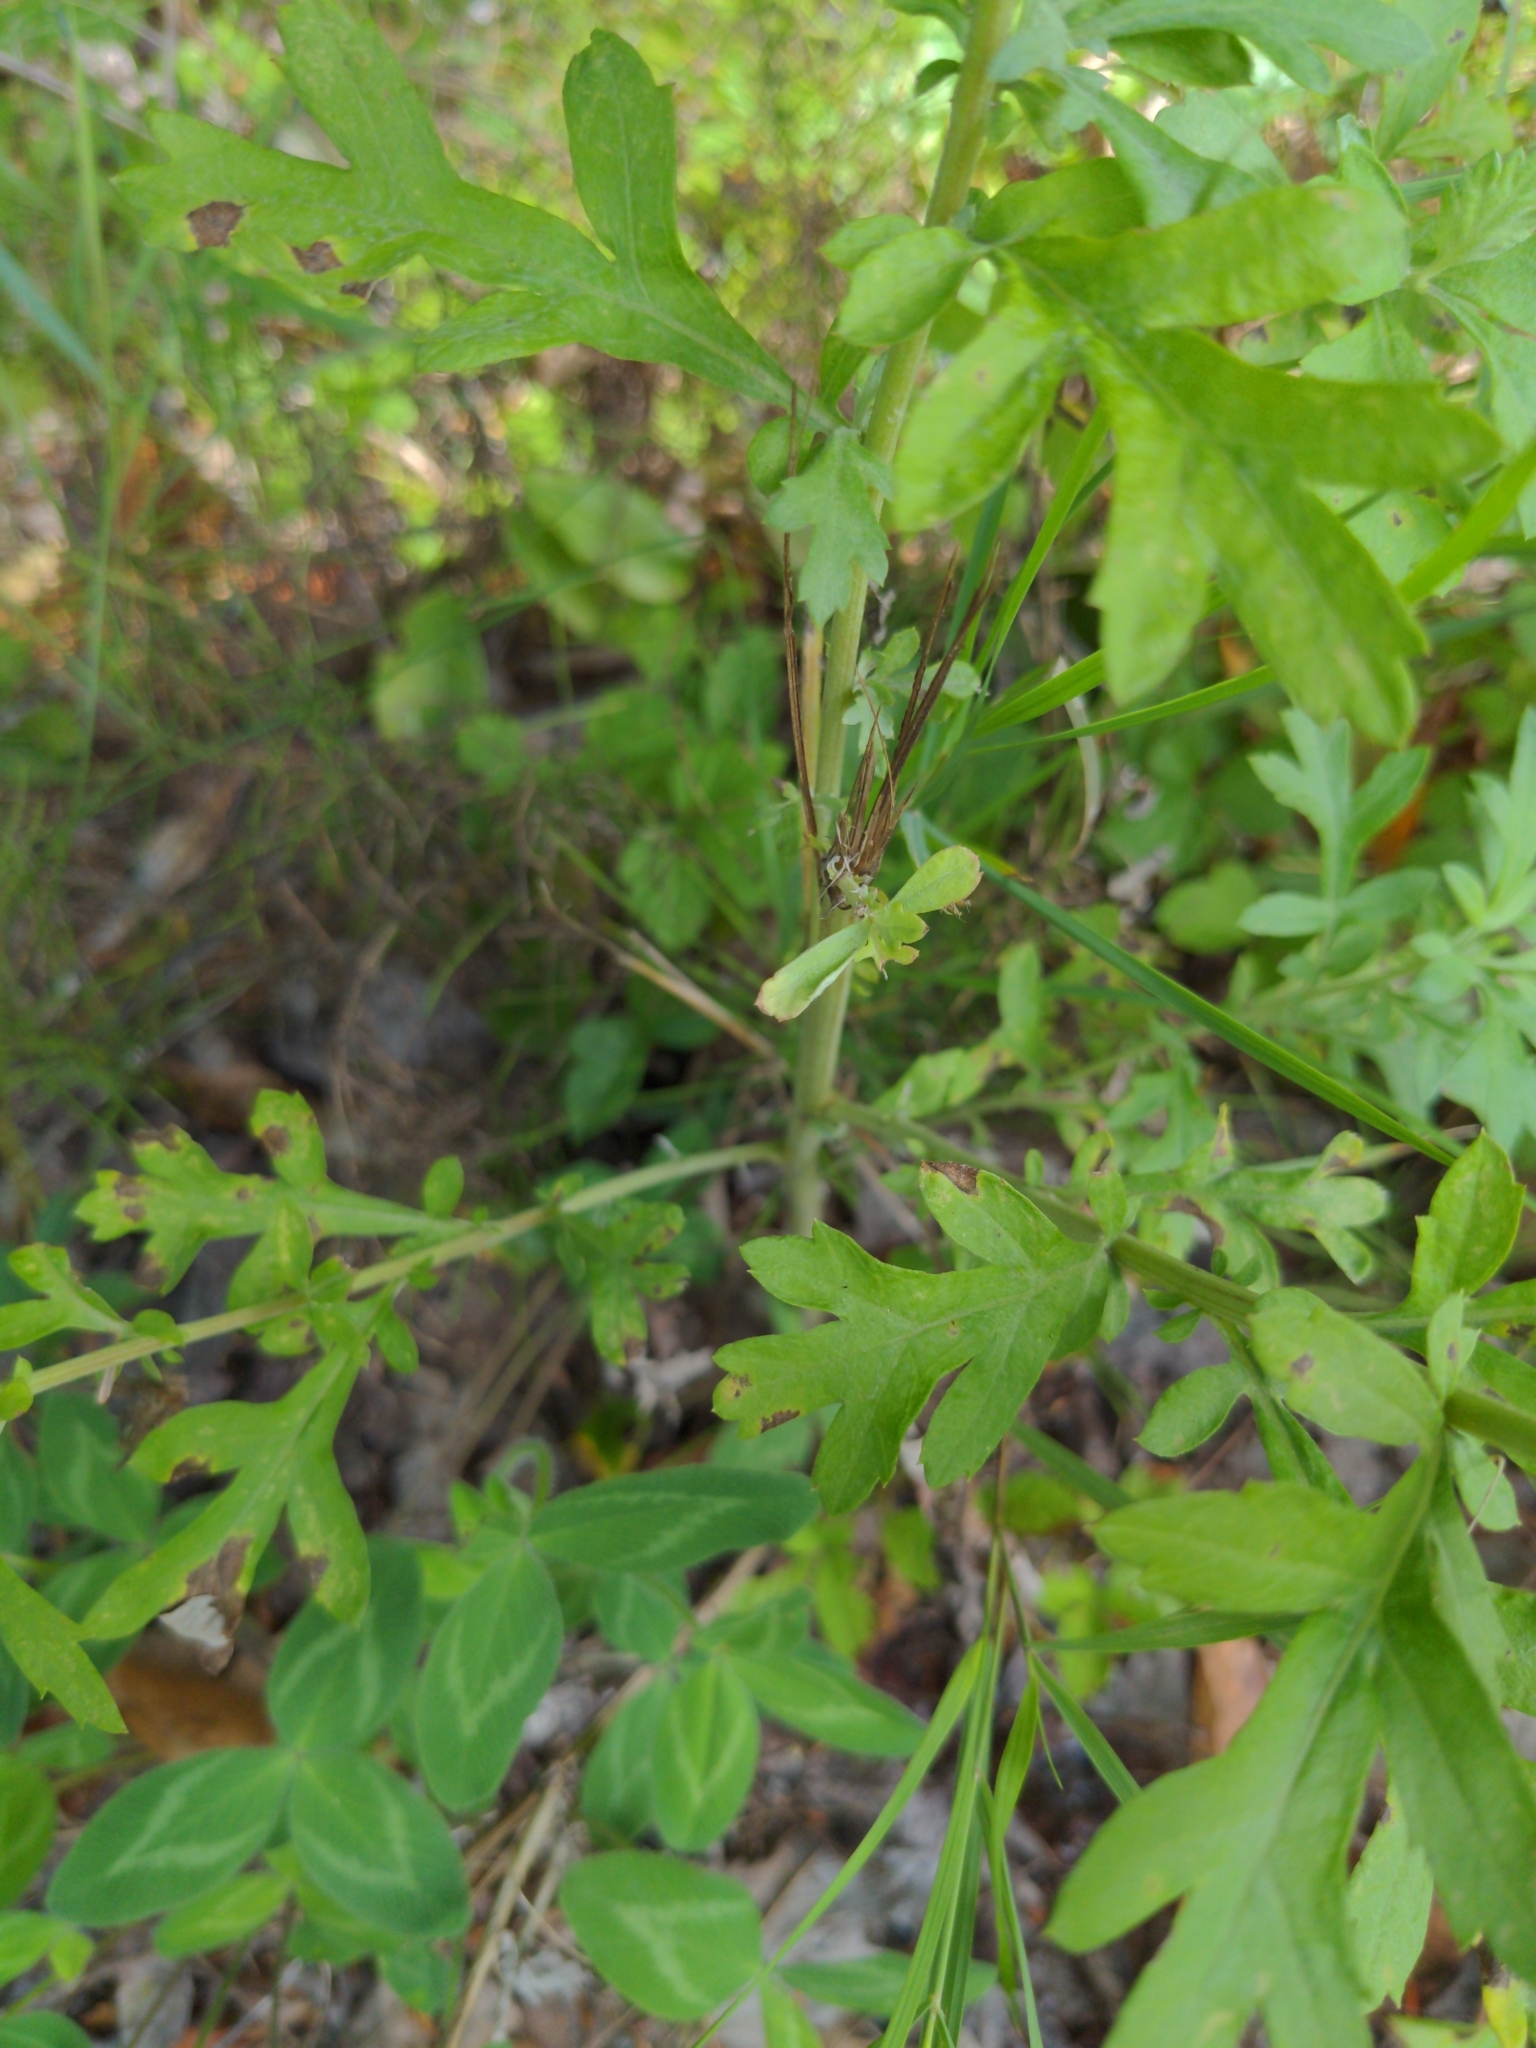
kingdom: Plantae
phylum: Tracheophyta
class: Magnoliopsida
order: Asterales
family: Asteraceae
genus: Artemisia
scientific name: Artemisia vulgaris
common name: Mugwort
